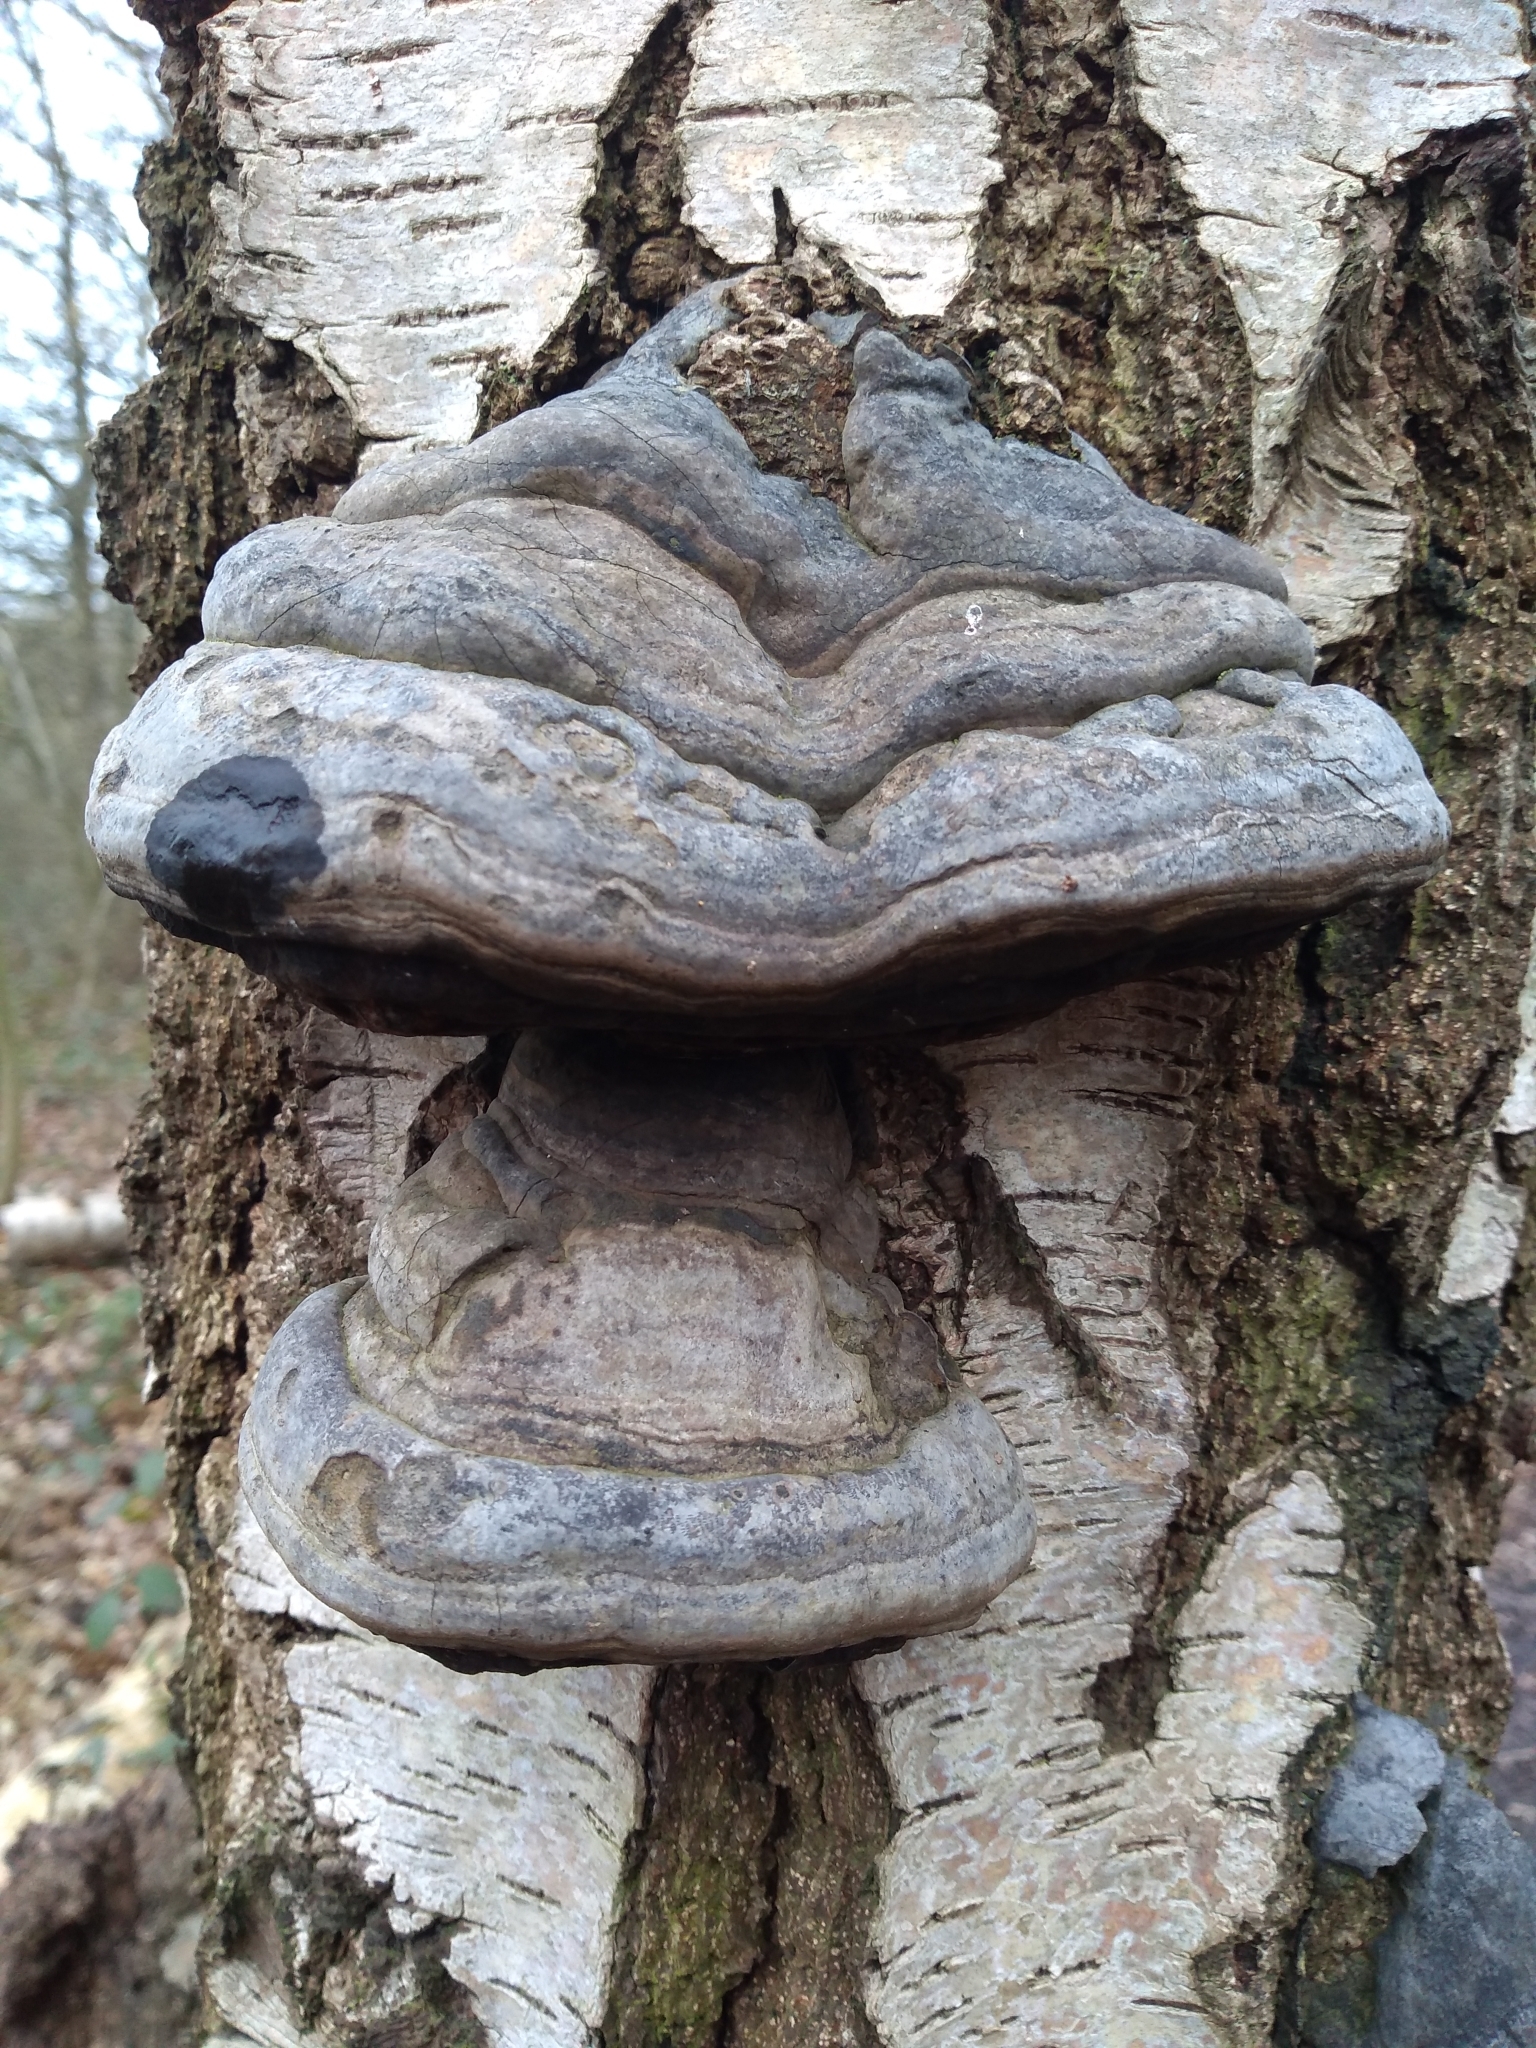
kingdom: Fungi
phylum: Basidiomycota
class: Agaricomycetes
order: Polyporales
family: Polyporaceae
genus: Fomes
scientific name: Fomes fomentarius
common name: Hoof fungus
